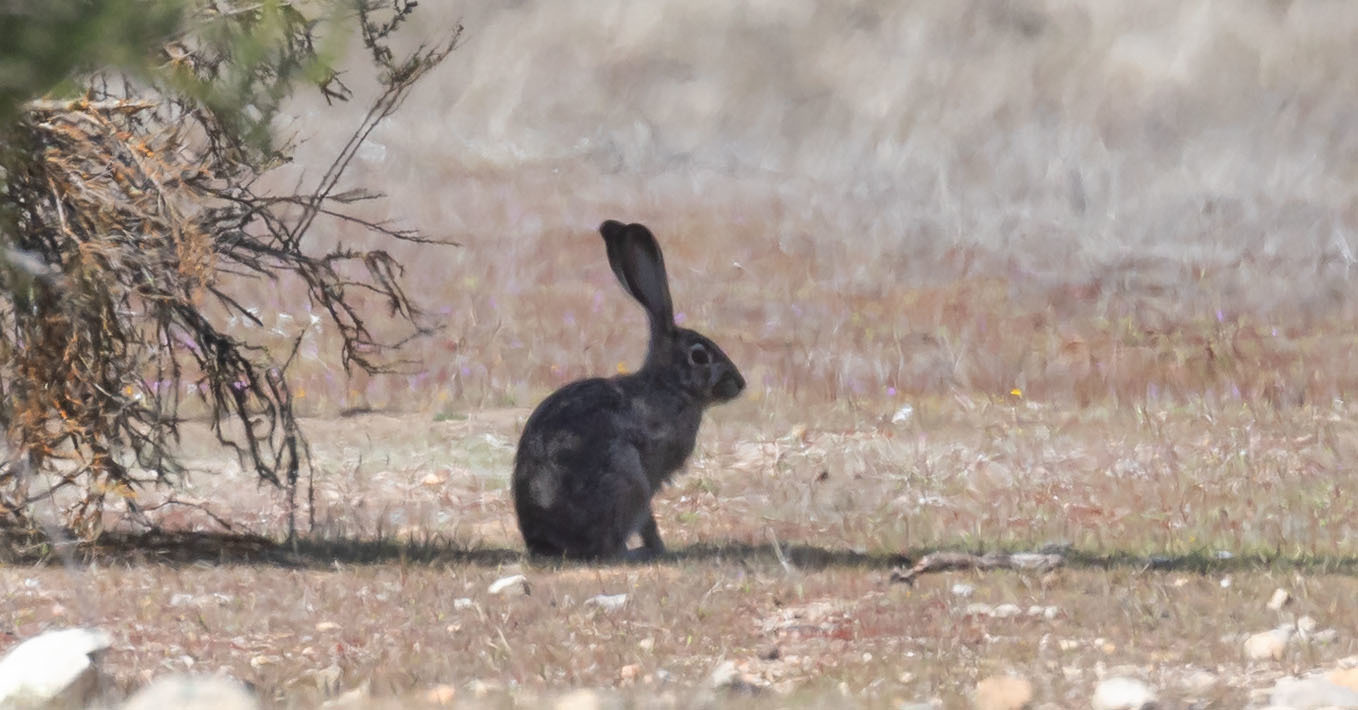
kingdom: Animalia
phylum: Chordata
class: Mammalia
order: Lagomorpha
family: Leporidae
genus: Lepus
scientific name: Lepus californicus
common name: Black-tailed jackrabbit
